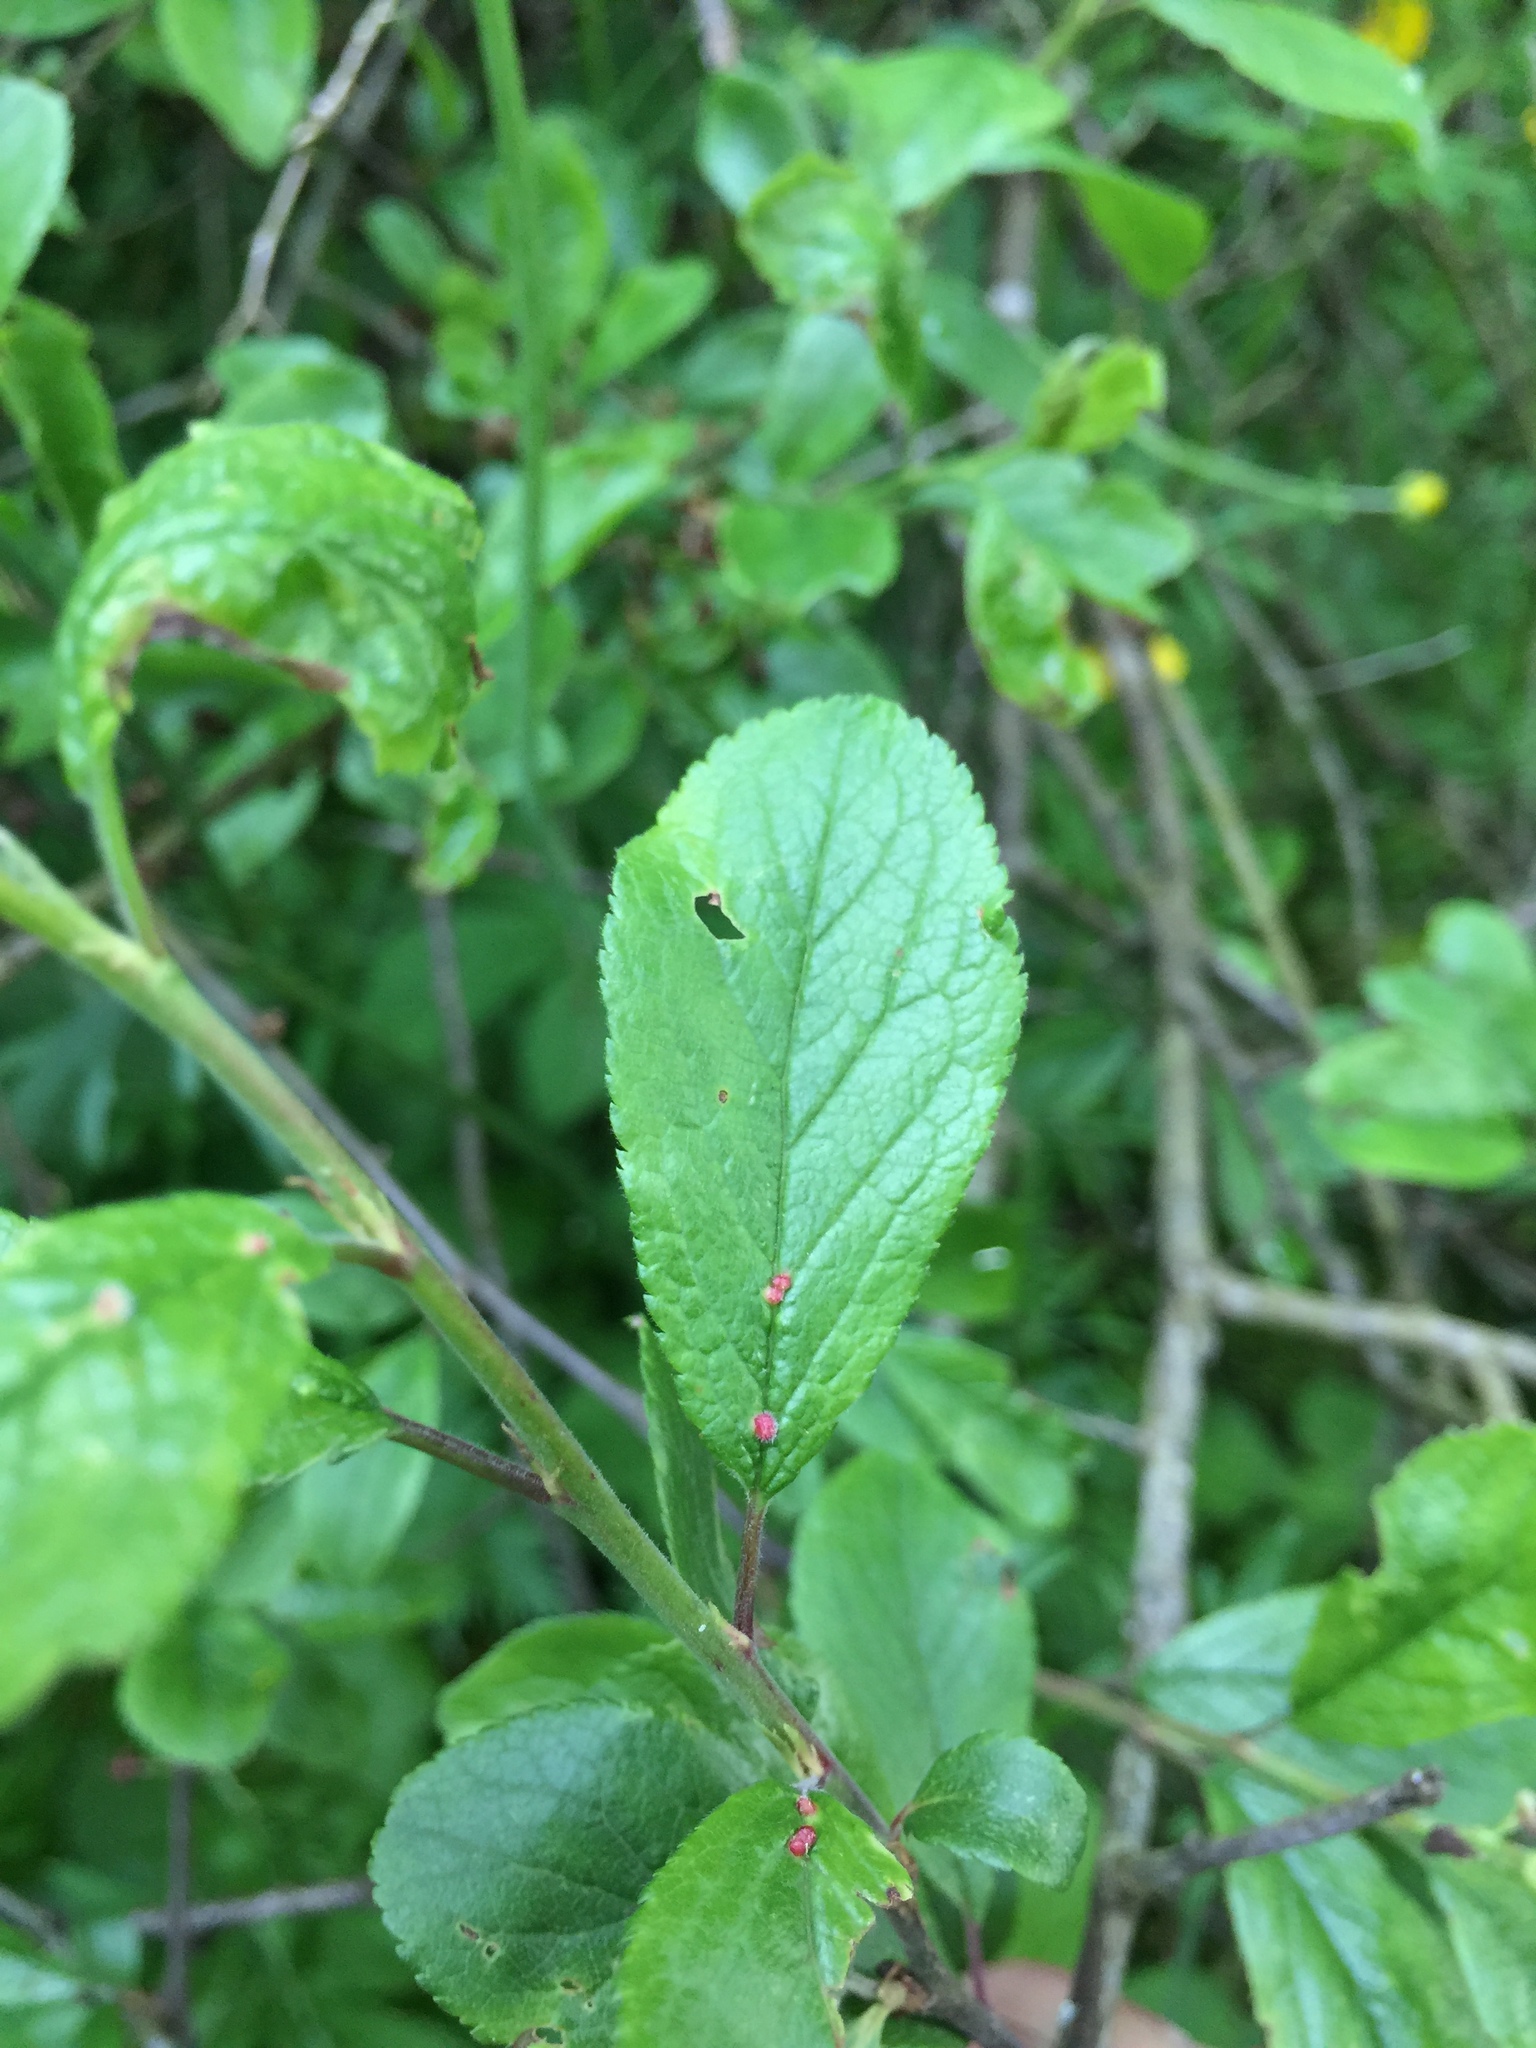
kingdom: Animalia
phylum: Arthropoda
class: Arachnida
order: Trombidiformes
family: Eriophyidae
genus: Eriophyes
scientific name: Eriophyes homophyllus
